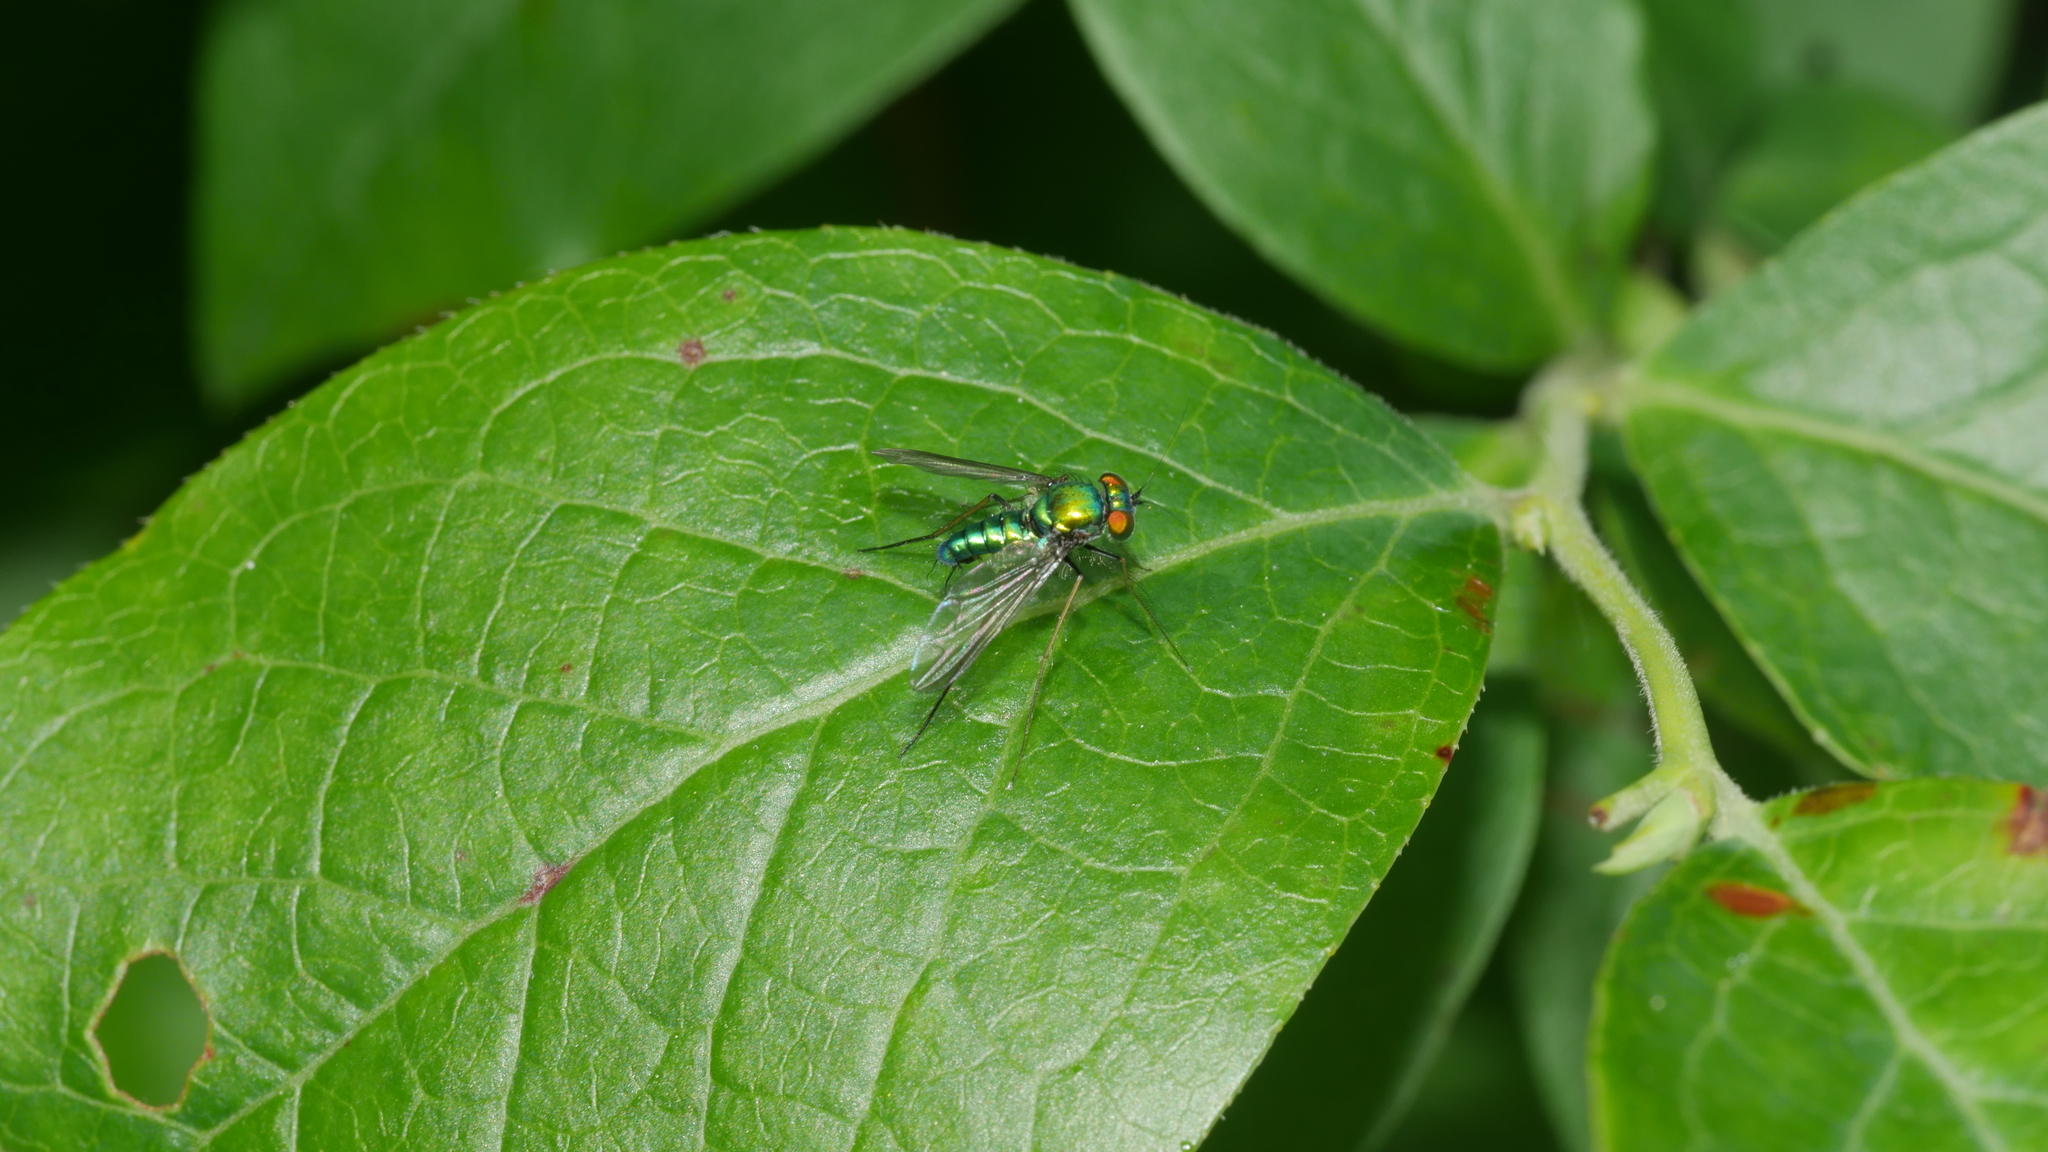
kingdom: Animalia
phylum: Arthropoda
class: Insecta
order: Diptera
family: Dolichopodidae
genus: Condylostylus
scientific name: Condylostylus comatus
